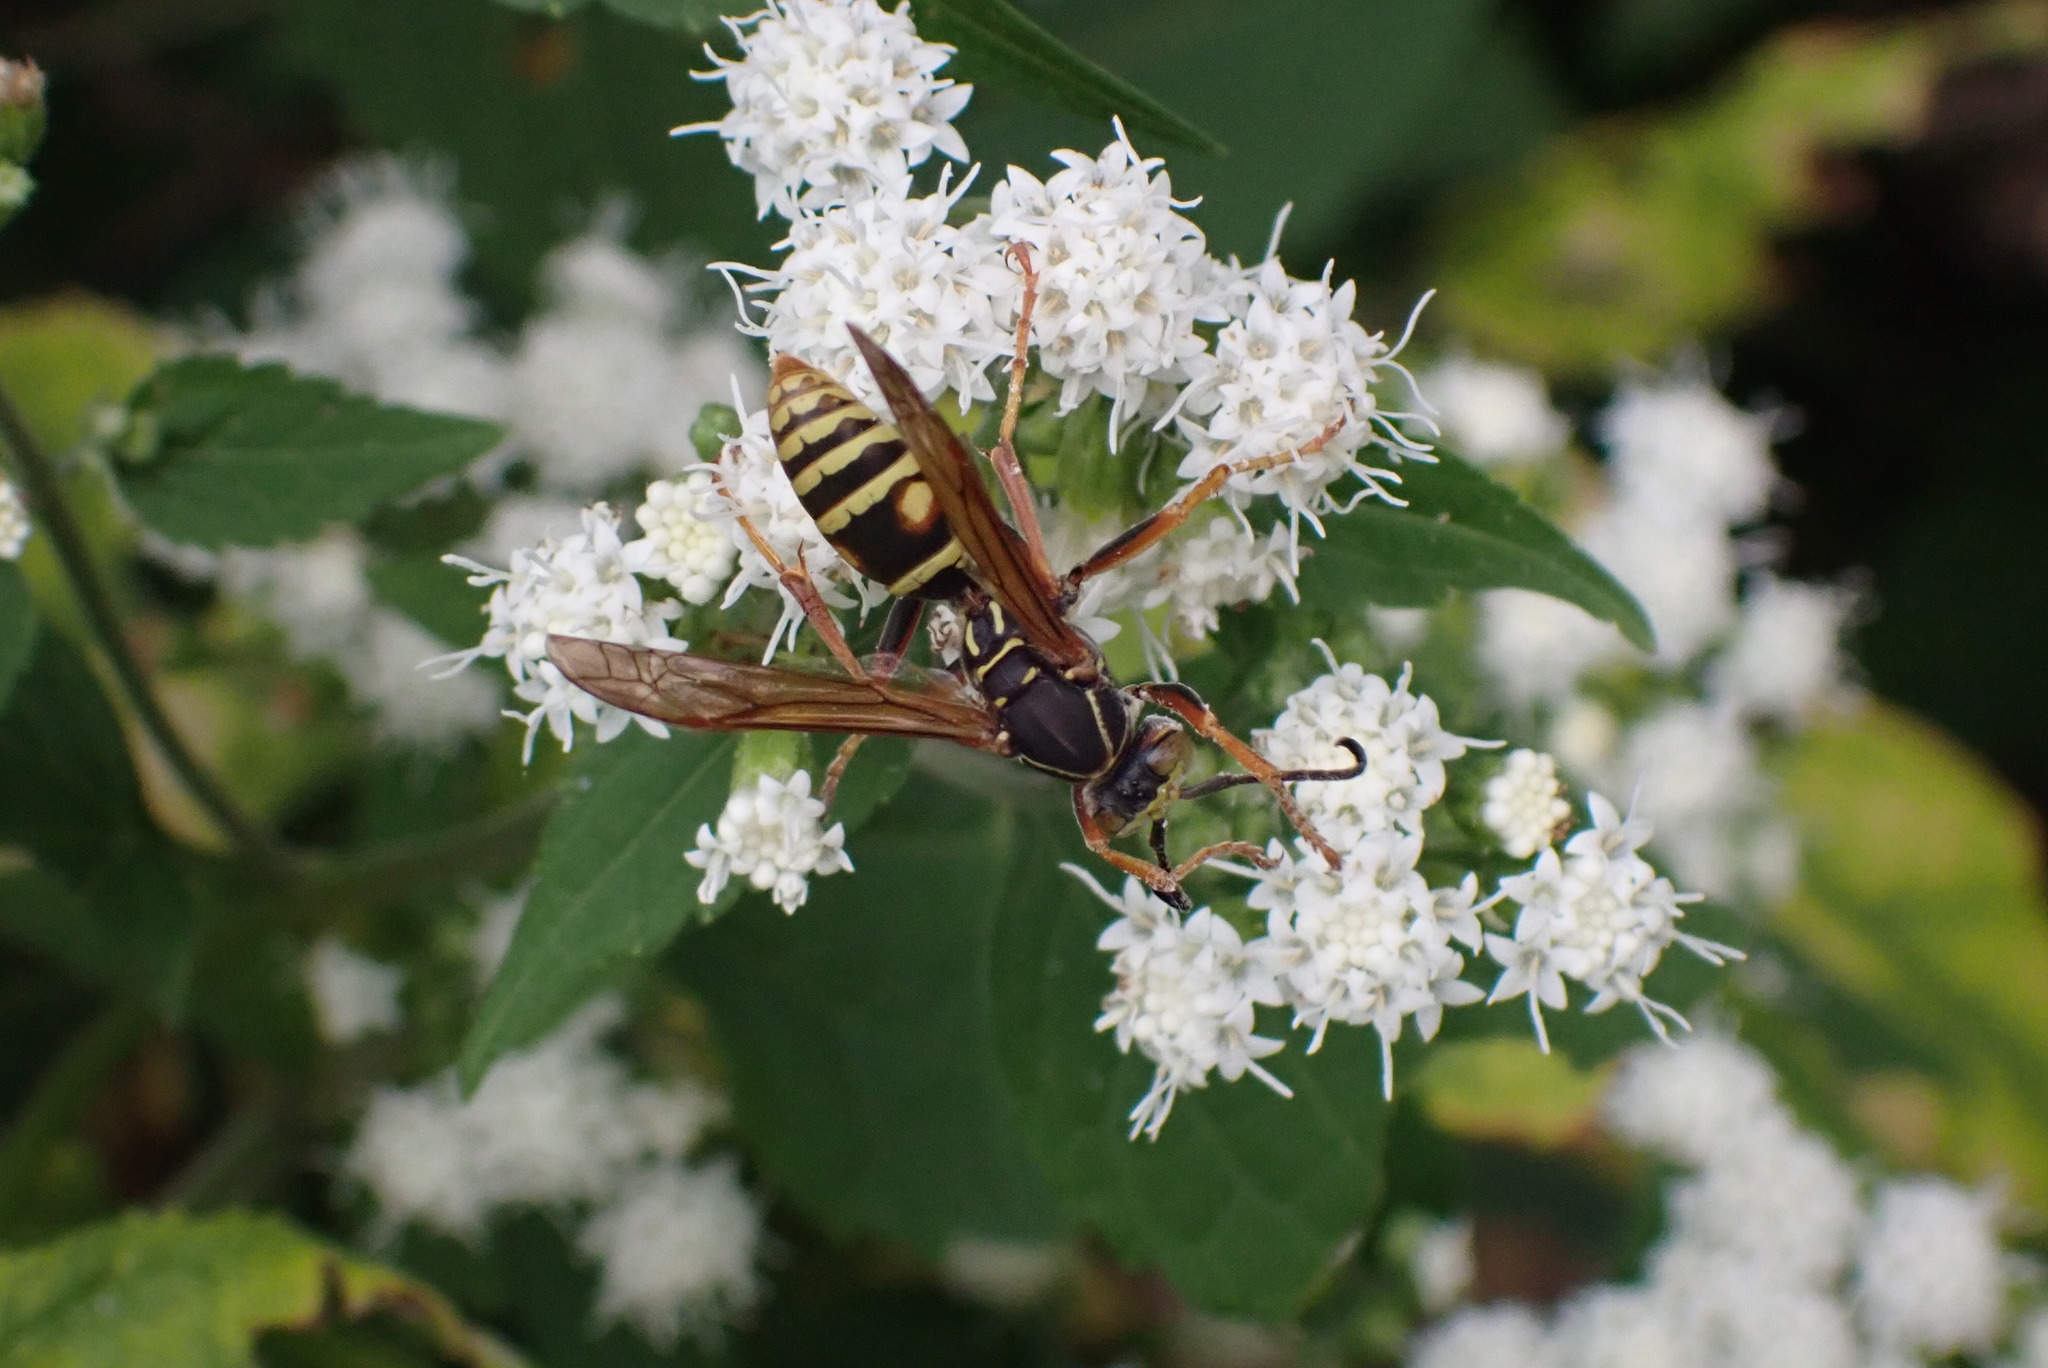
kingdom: Animalia
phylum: Arthropoda
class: Insecta
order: Hymenoptera
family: Eumenidae
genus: Polistes
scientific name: Polistes fuscatus
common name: Dark paper wasp
